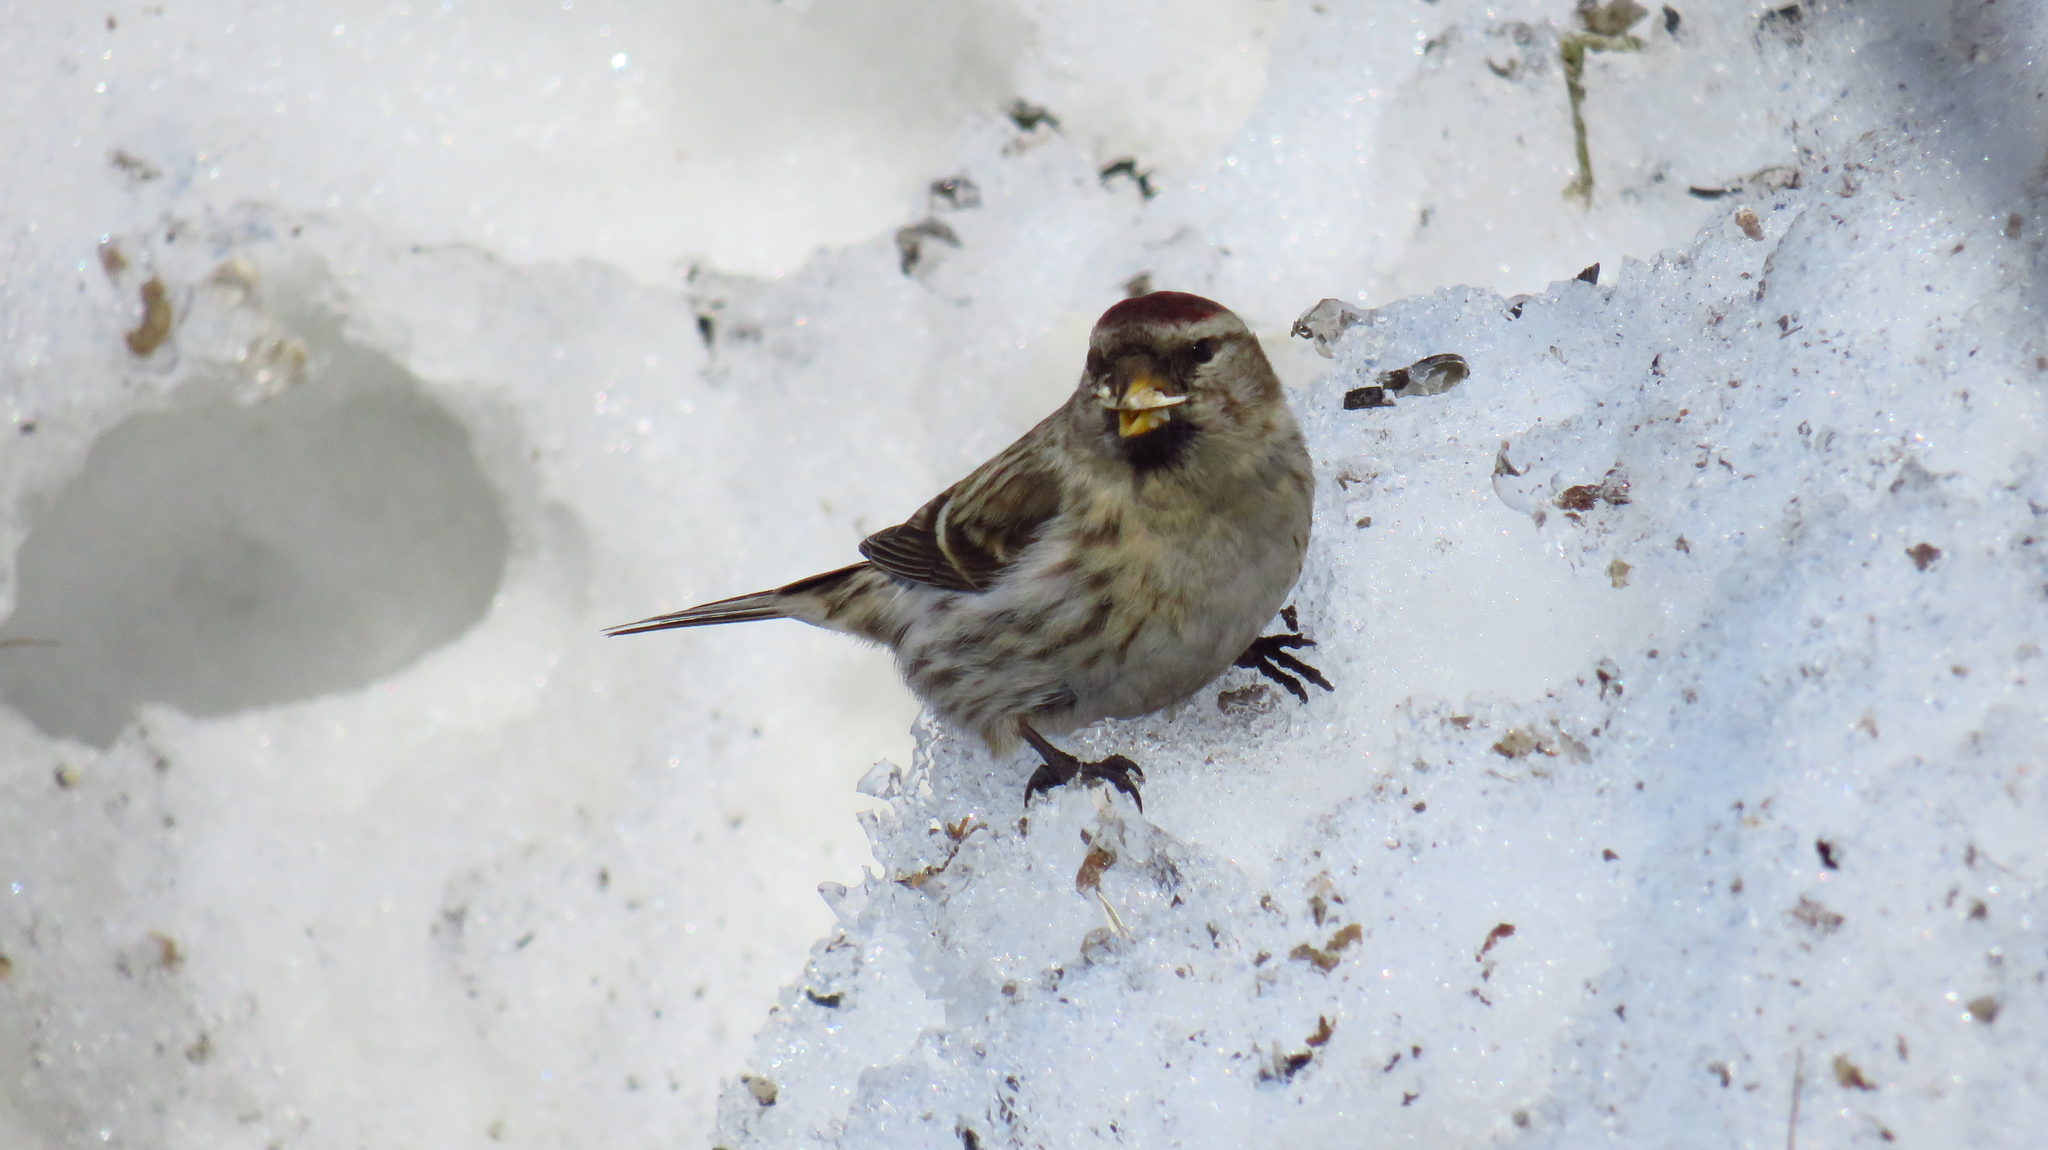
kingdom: Animalia
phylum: Chordata
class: Aves
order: Passeriformes
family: Fringillidae
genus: Acanthis
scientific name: Acanthis flammea
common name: Common redpoll
